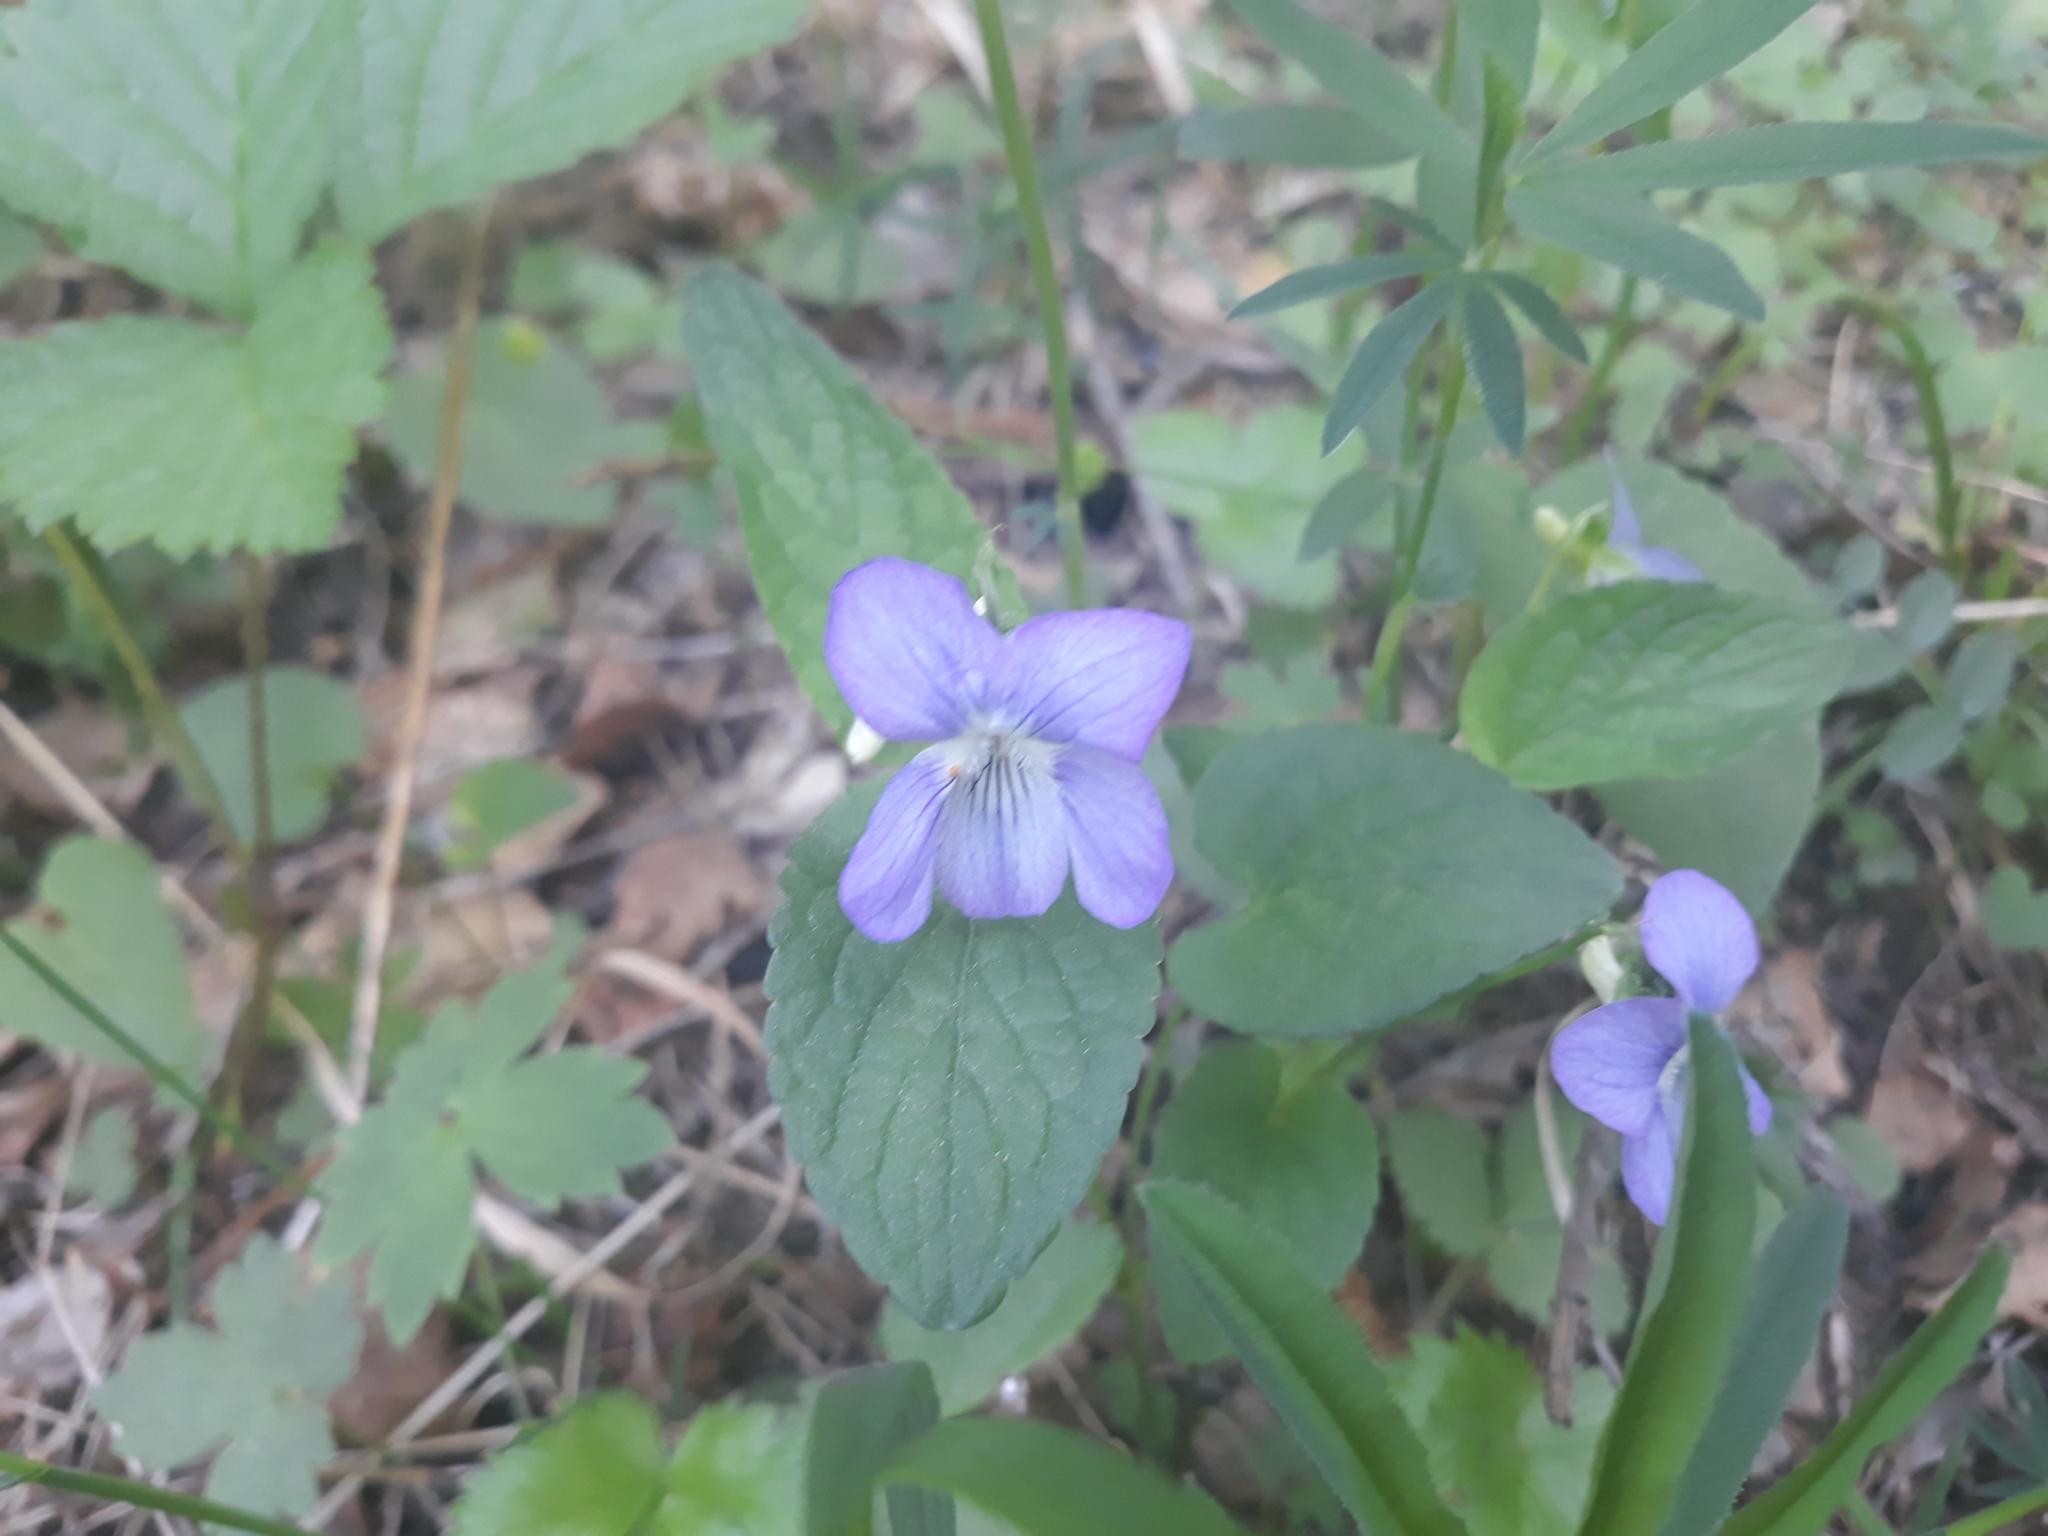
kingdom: Plantae
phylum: Tracheophyta
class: Magnoliopsida
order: Malpighiales
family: Violaceae
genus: Viola
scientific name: Viola canina
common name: Heath dog-violet
